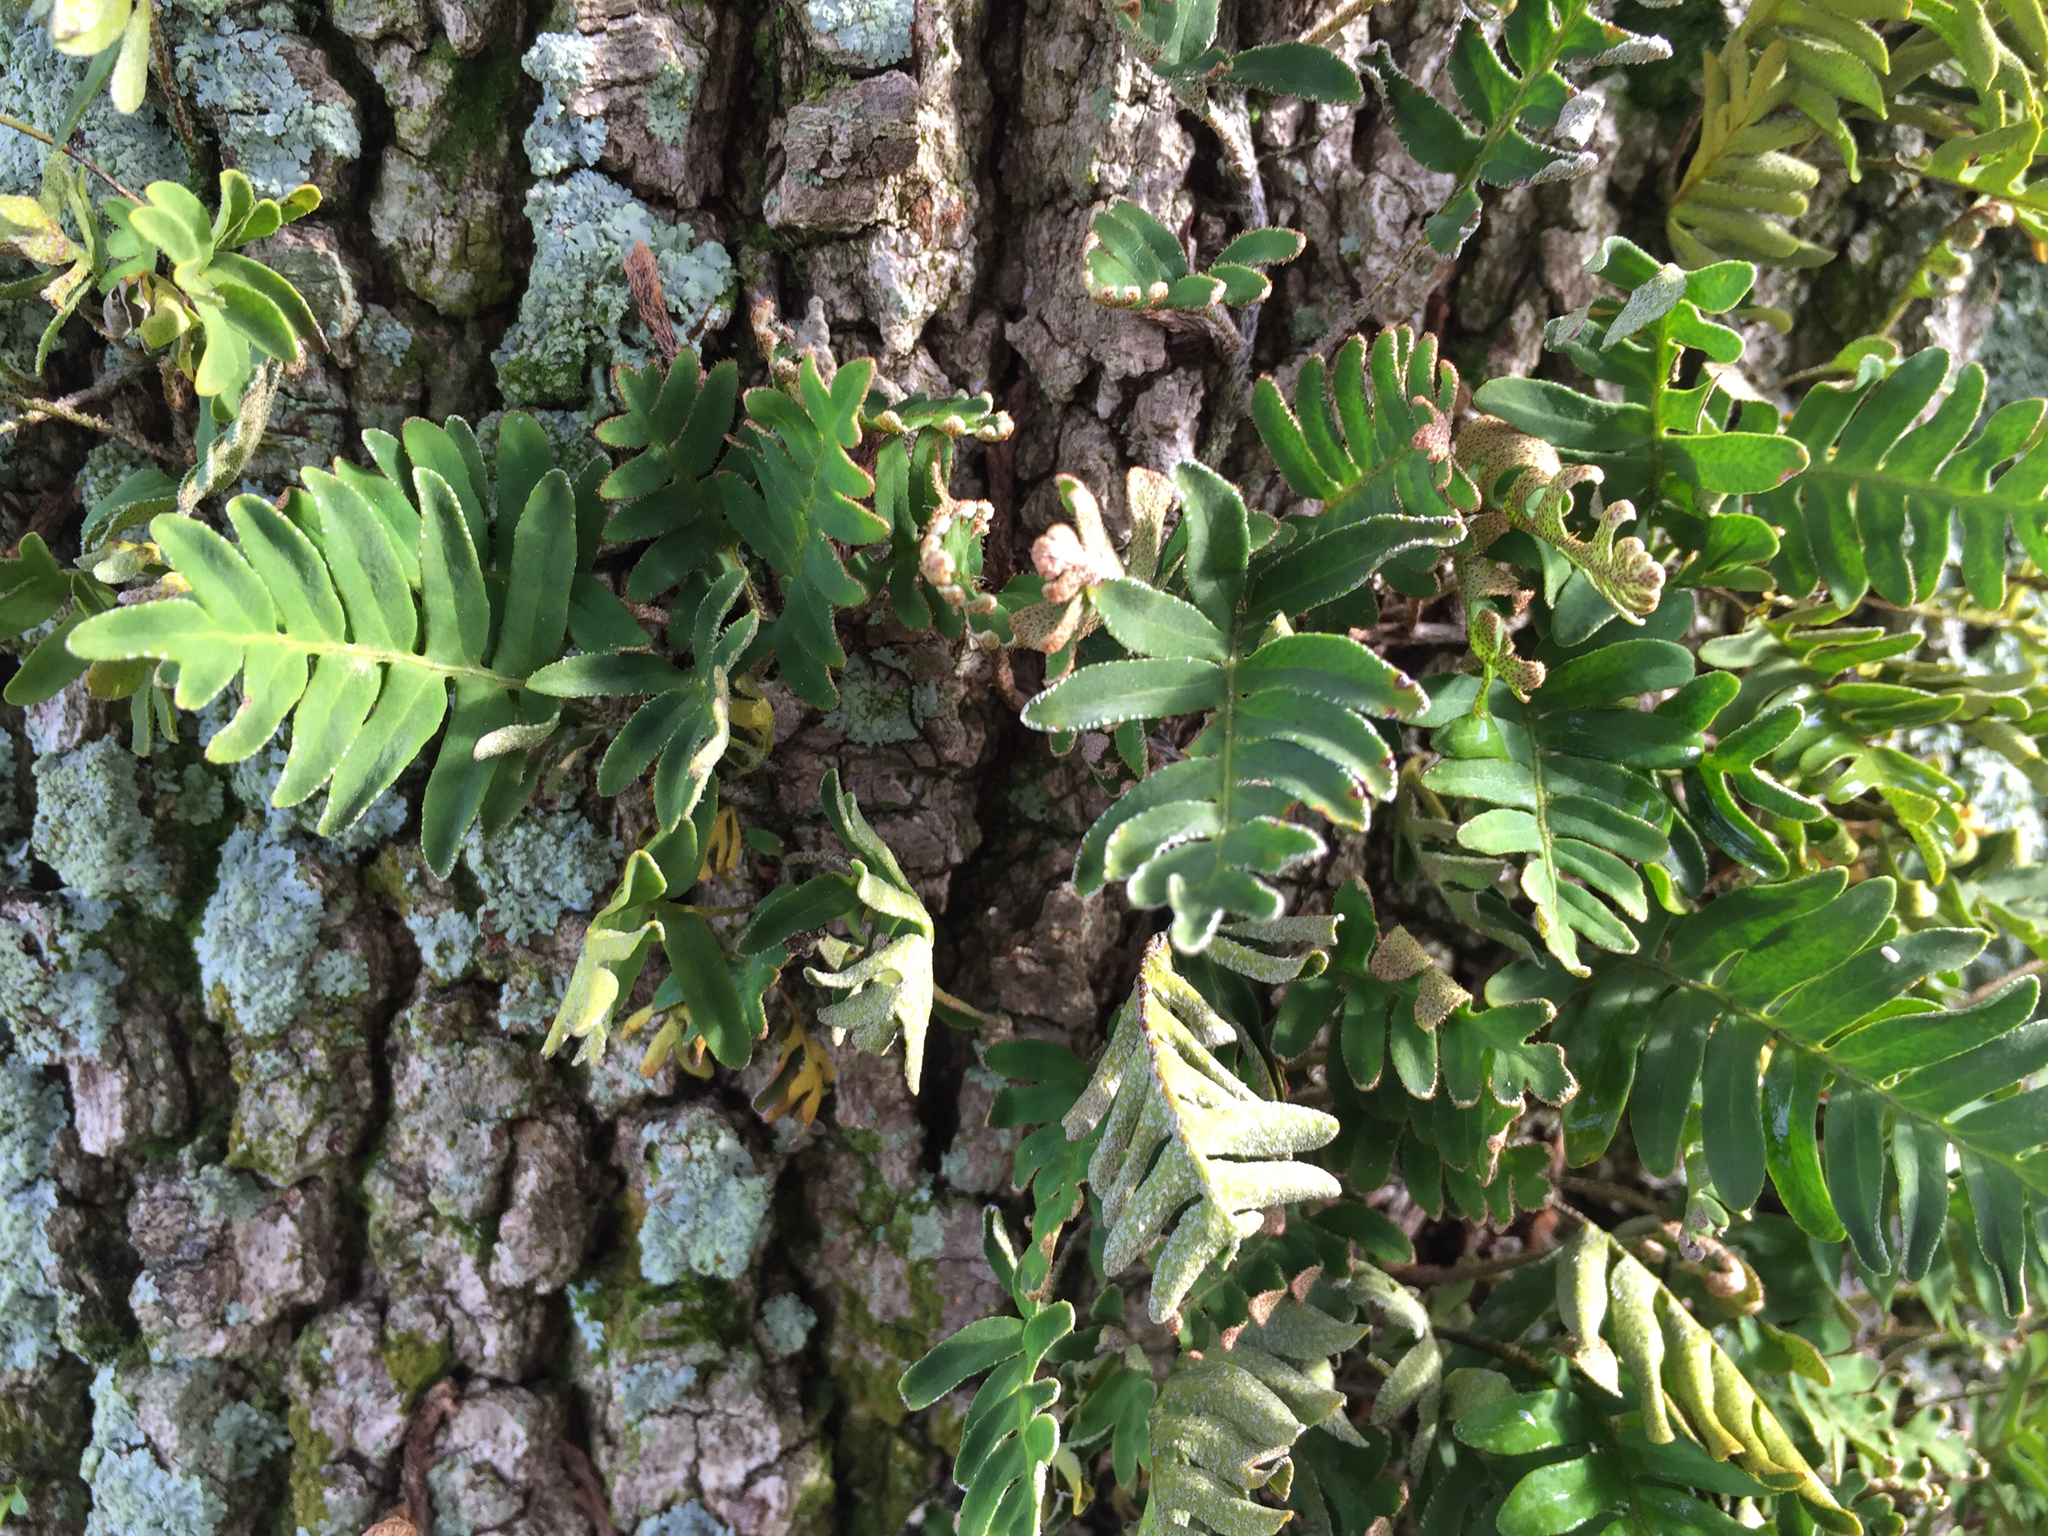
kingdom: Plantae
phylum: Tracheophyta
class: Polypodiopsida
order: Polypodiales
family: Polypodiaceae
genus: Pleopeltis
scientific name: Pleopeltis michauxiana
